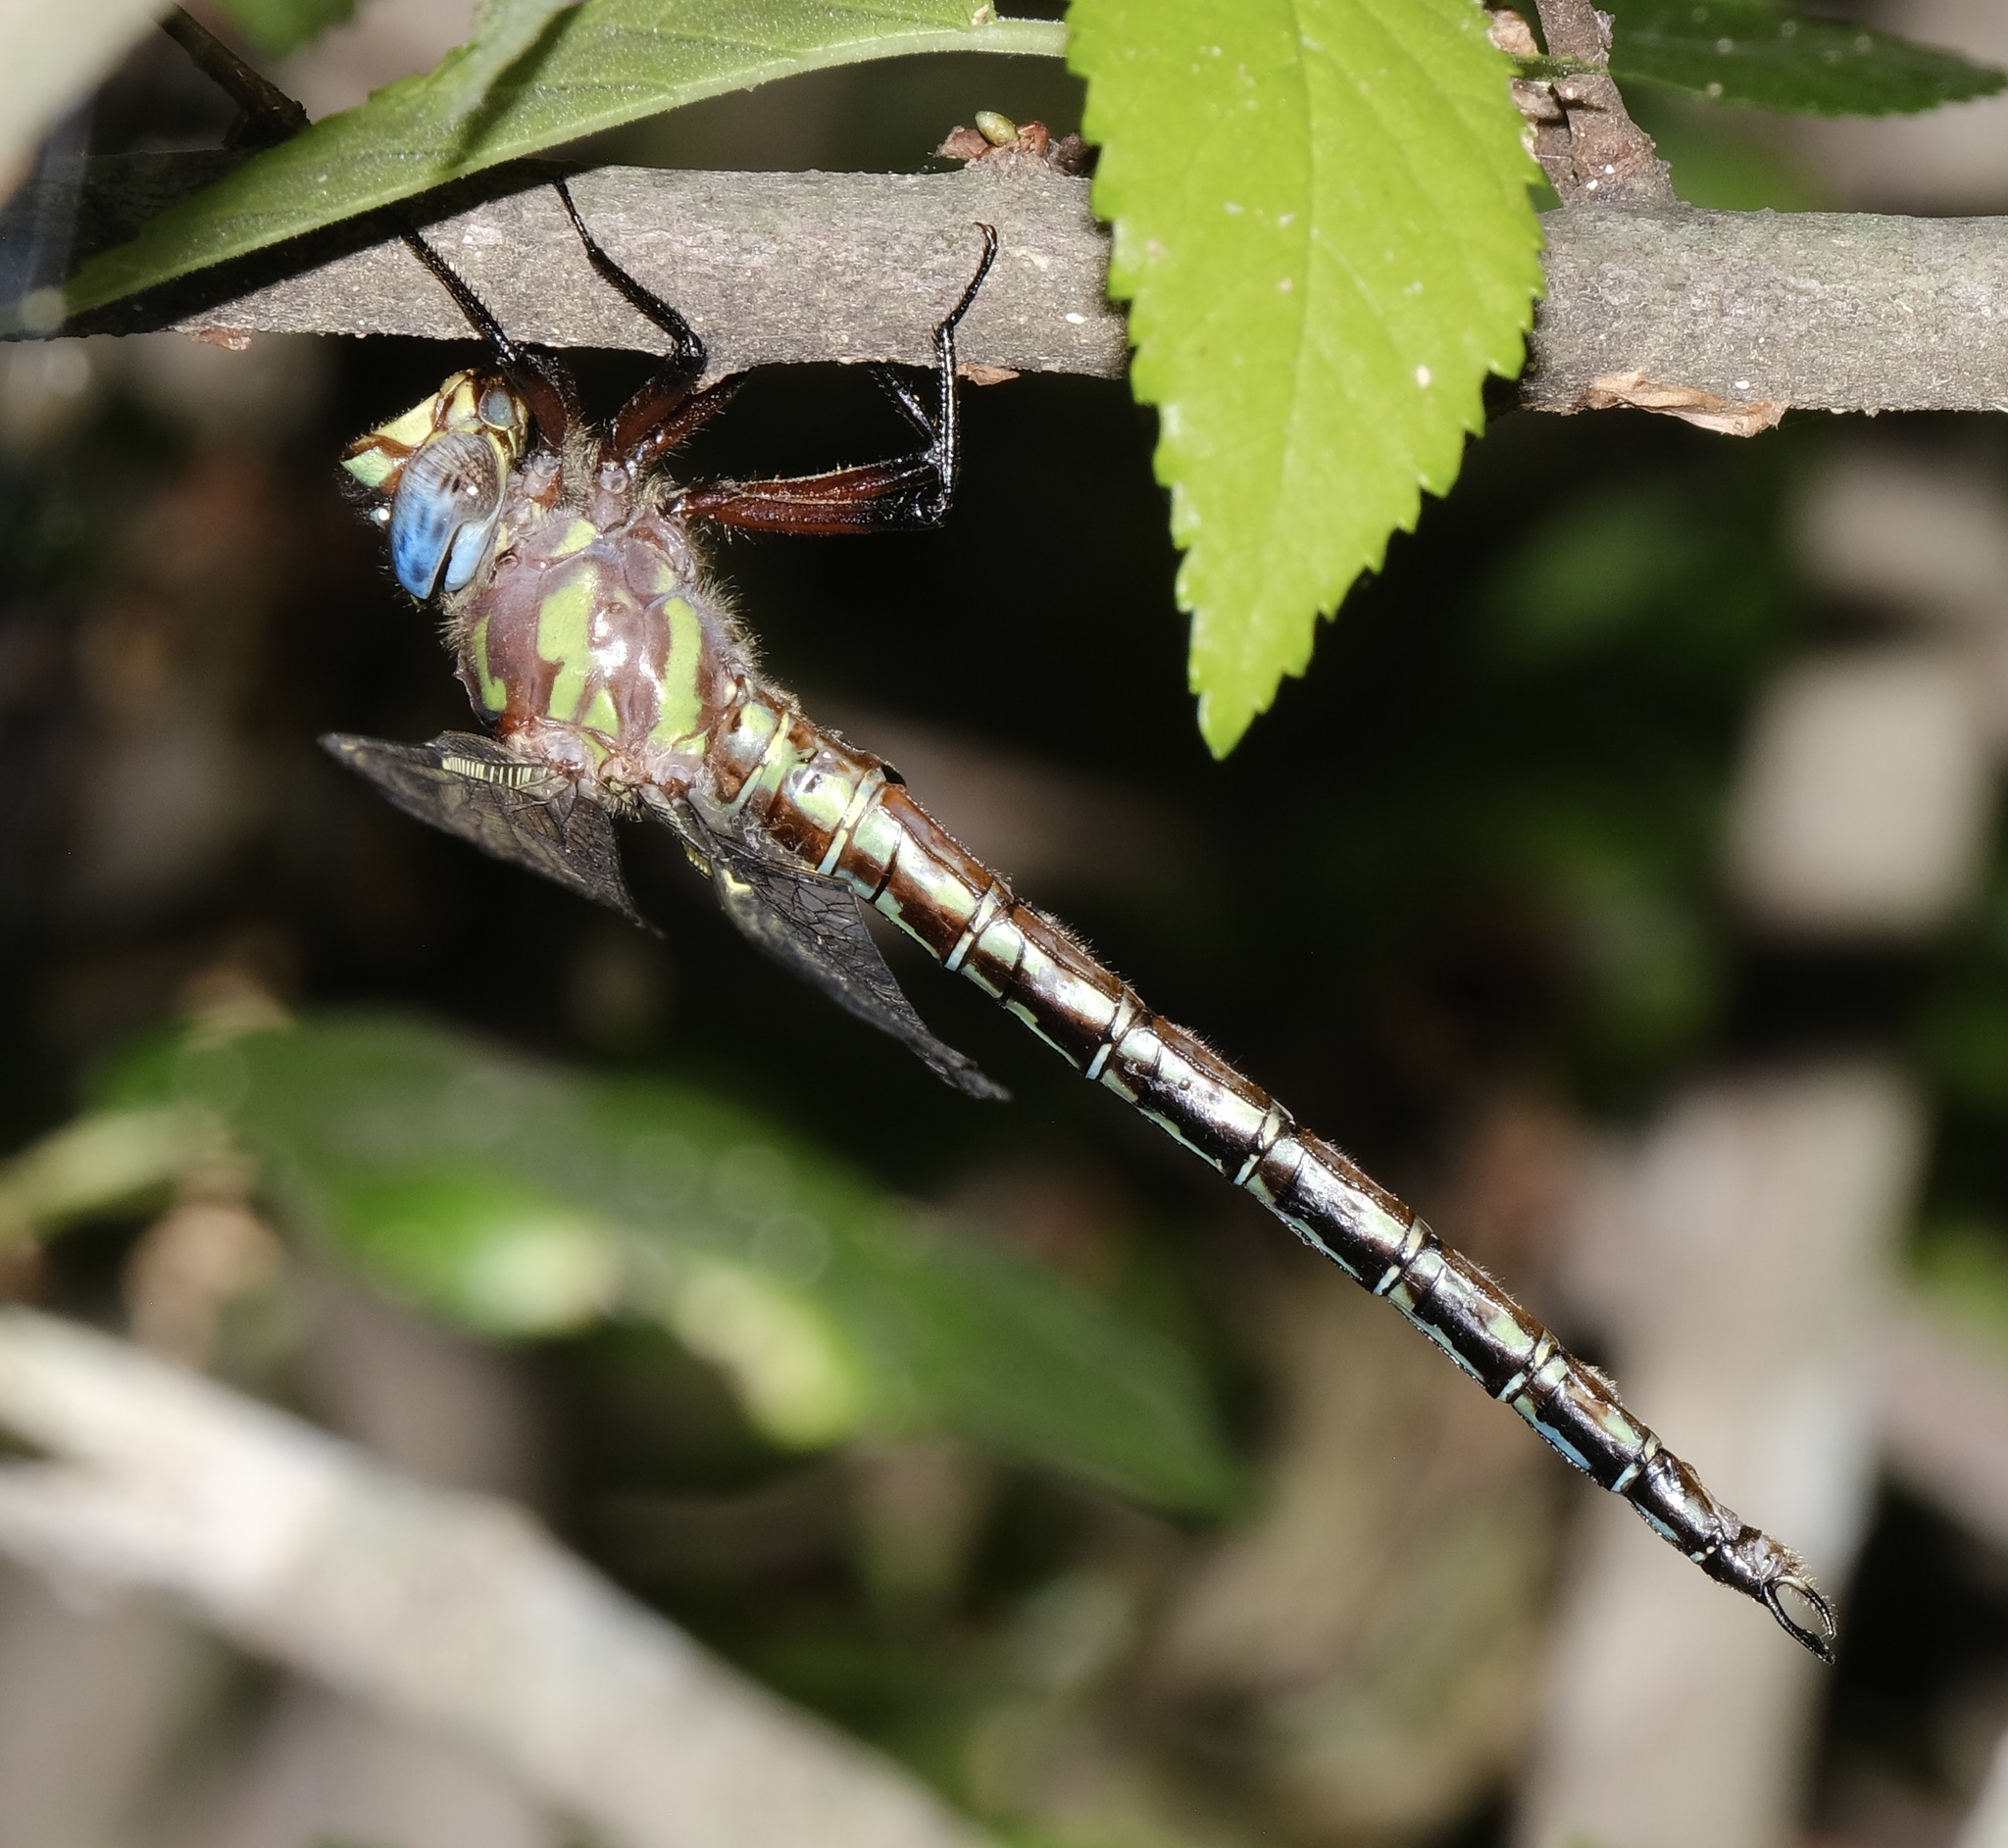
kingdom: Animalia
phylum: Arthropoda
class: Insecta
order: Odonata
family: Aeshnidae
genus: Nasiaeschna
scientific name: Nasiaeschna pentacantha
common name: Cyrano darner
